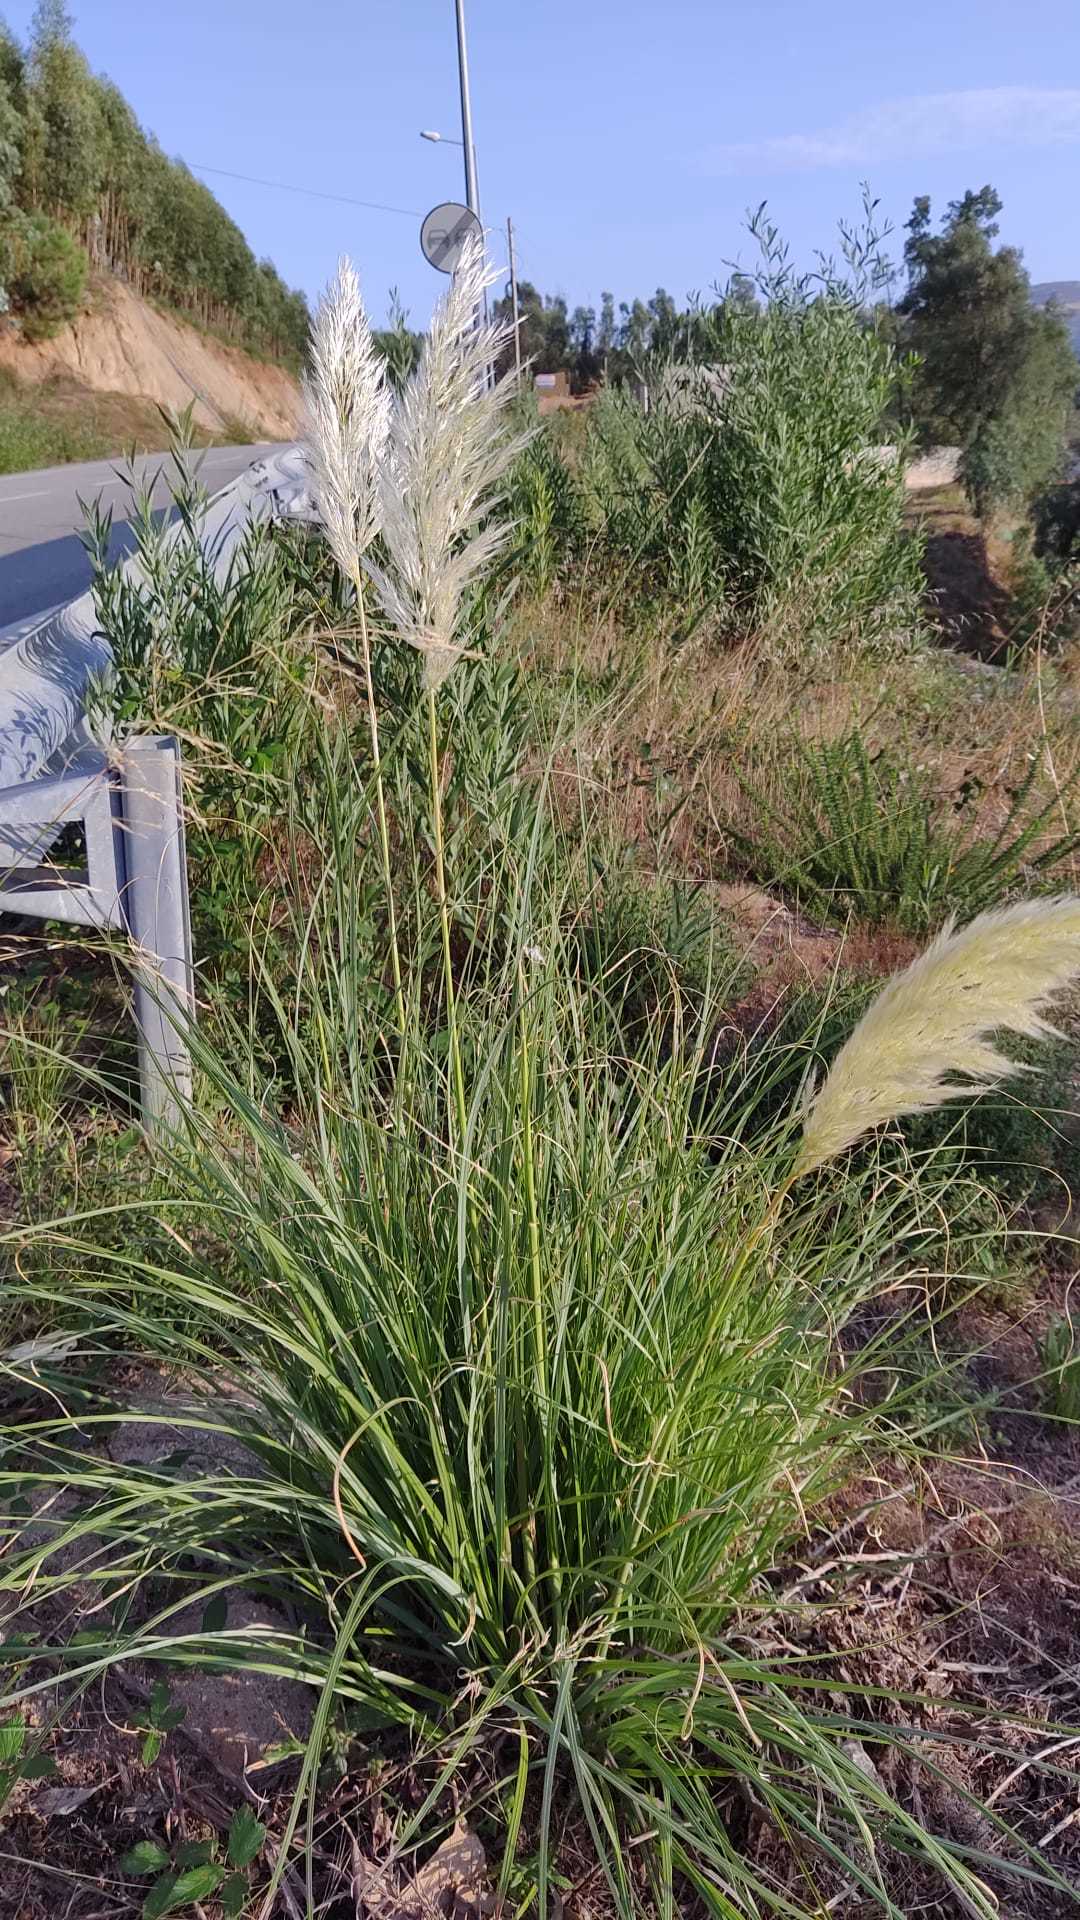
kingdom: Plantae
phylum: Tracheophyta
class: Liliopsida
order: Poales
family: Poaceae
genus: Cortaderia
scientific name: Cortaderia selloana
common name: Uruguayan pampas grass
